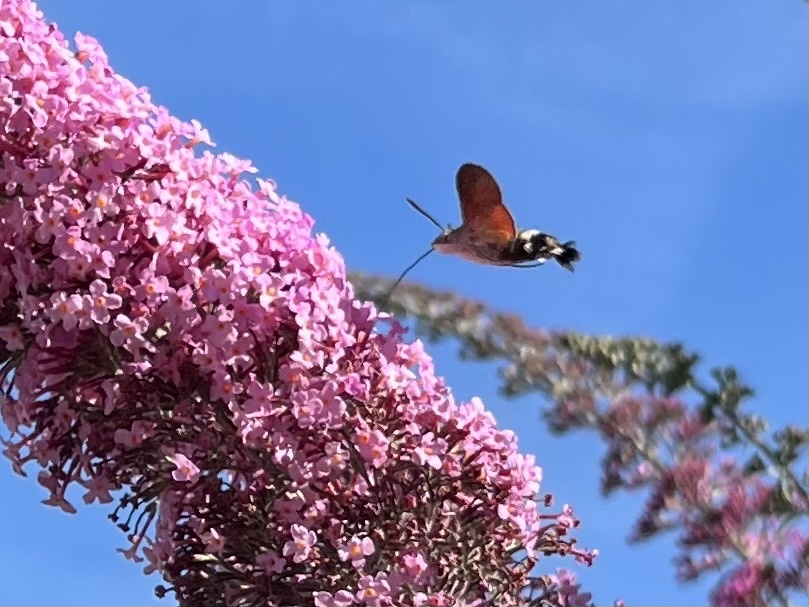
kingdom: Animalia
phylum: Arthropoda
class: Insecta
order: Lepidoptera
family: Sphingidae
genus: Macroglossum
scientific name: Macroglossum stellatarum
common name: Humming-bird hawk-moth
